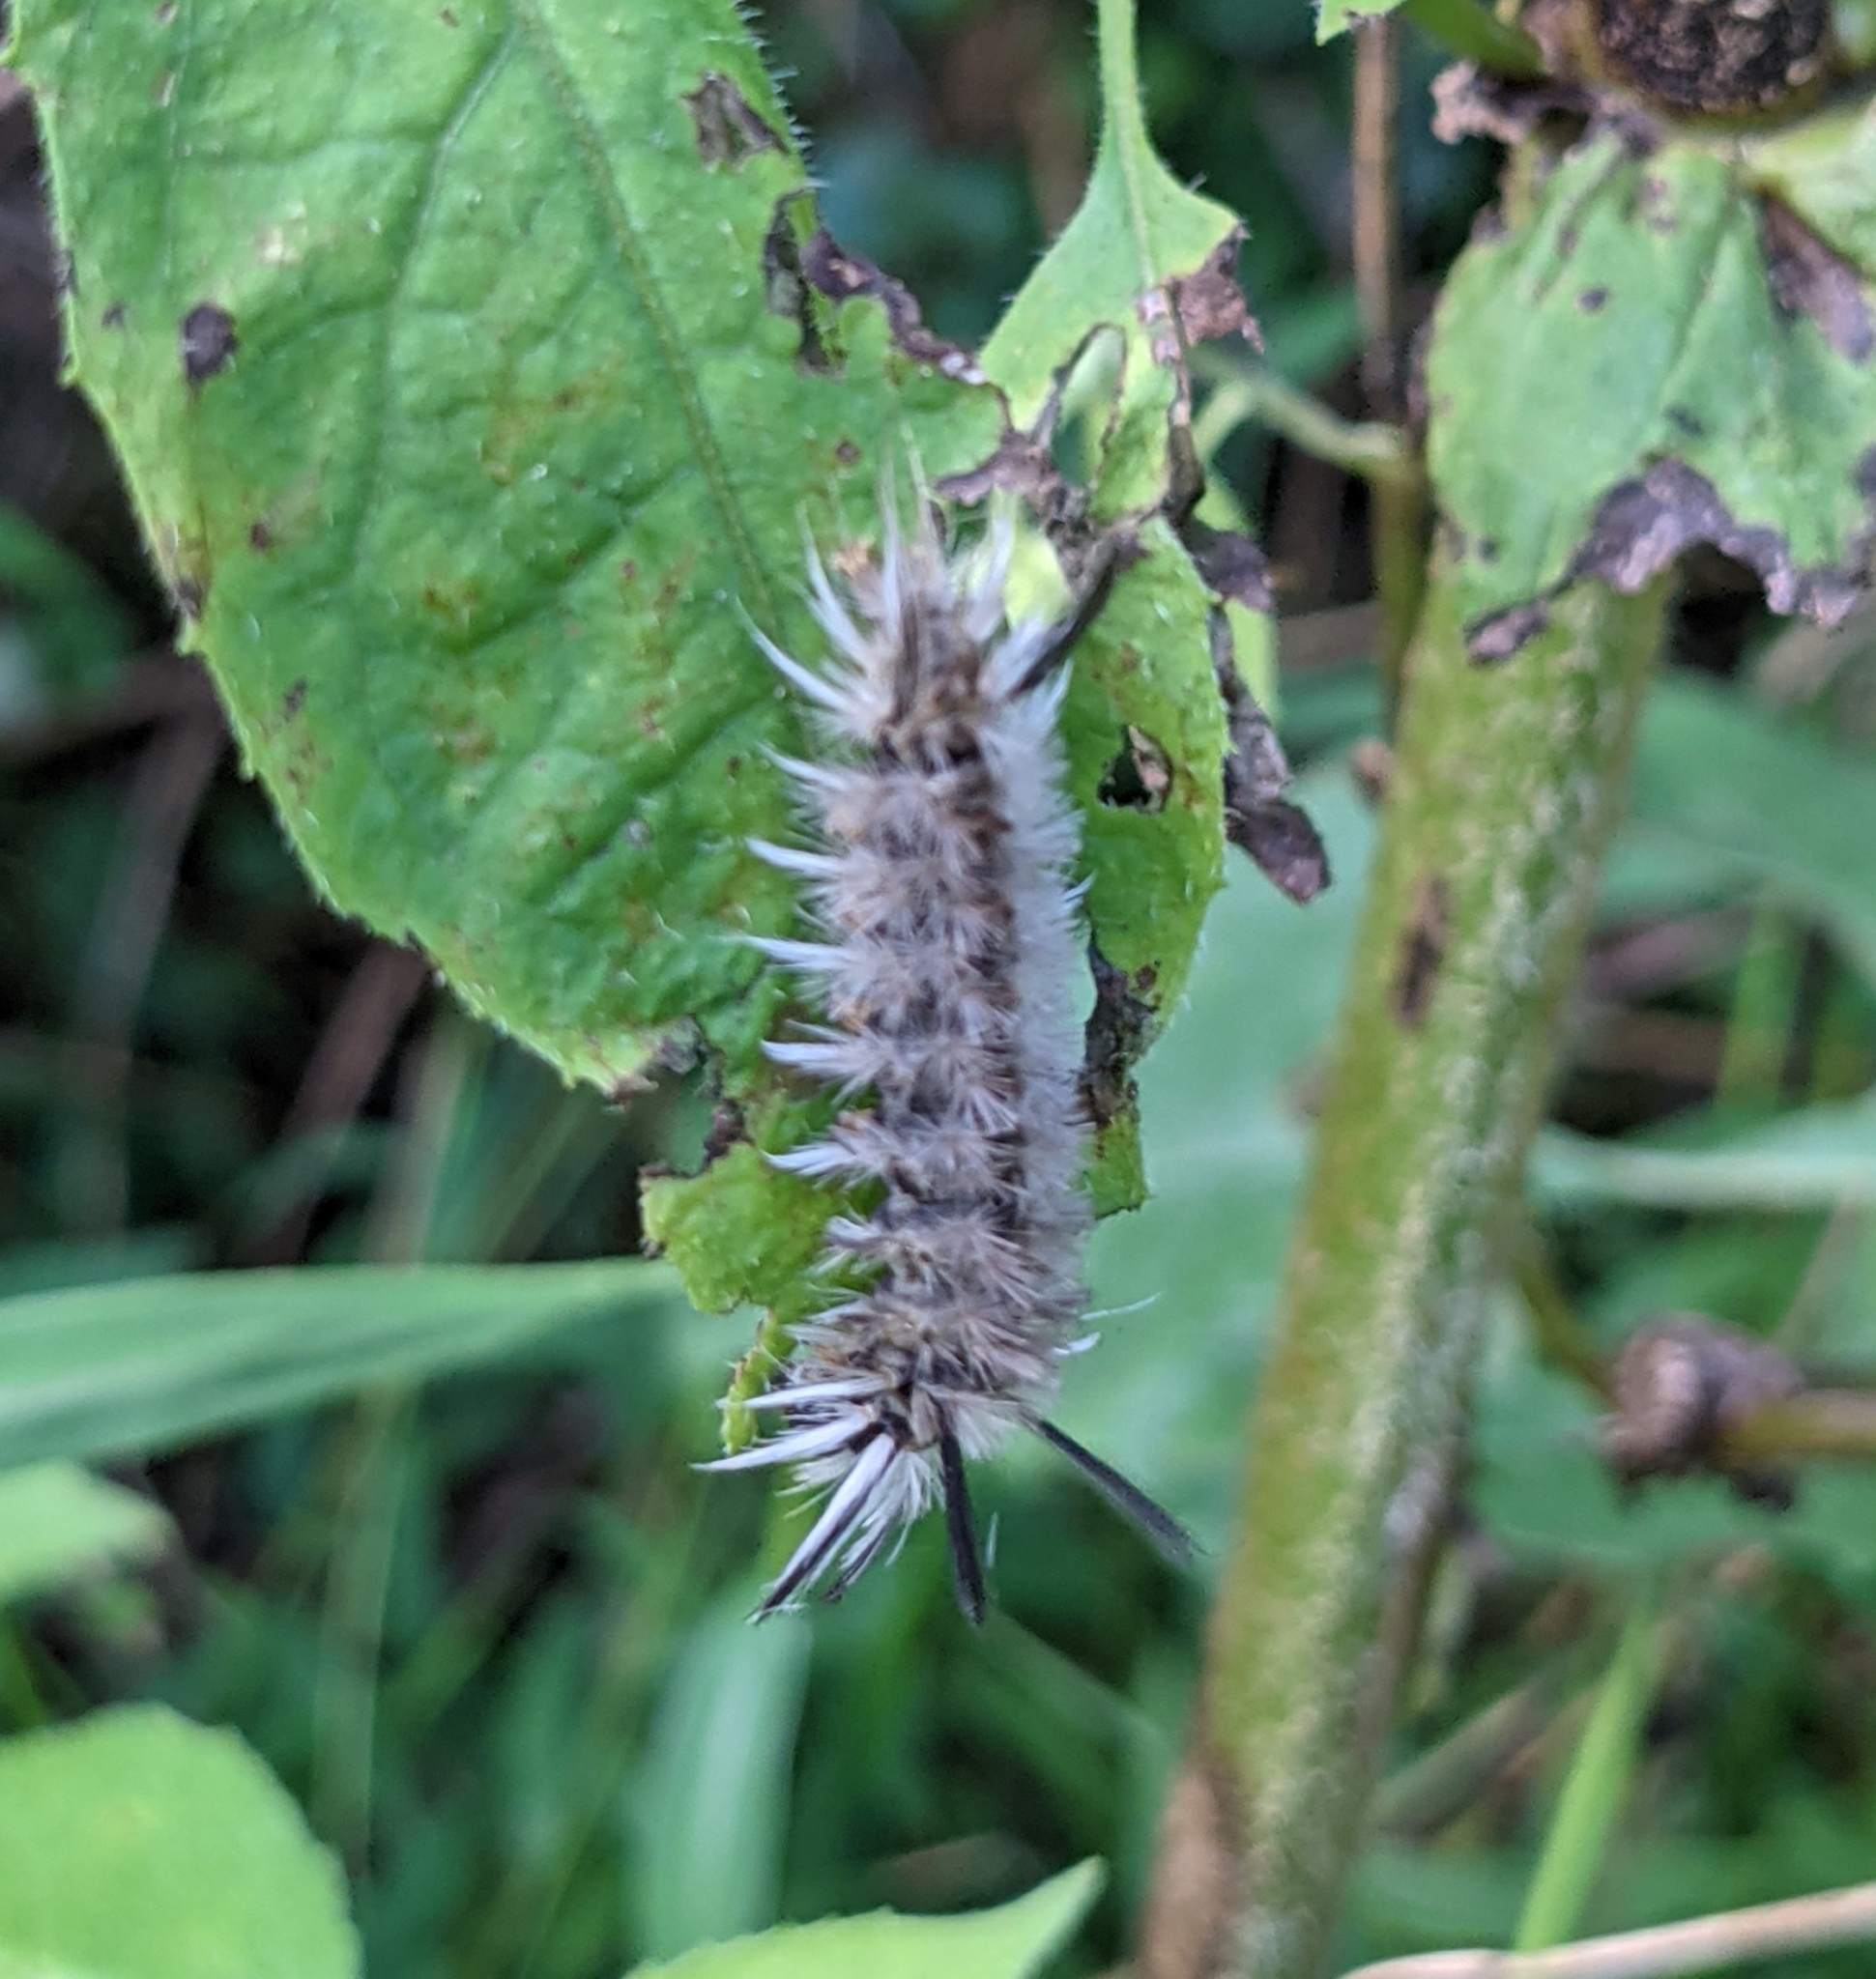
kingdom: Animalia
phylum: Arthropoda
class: Insecta
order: Lepidoptera
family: Erebidae
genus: Halysidota
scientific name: Halysidota tessellaris
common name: Banded tussock moth
